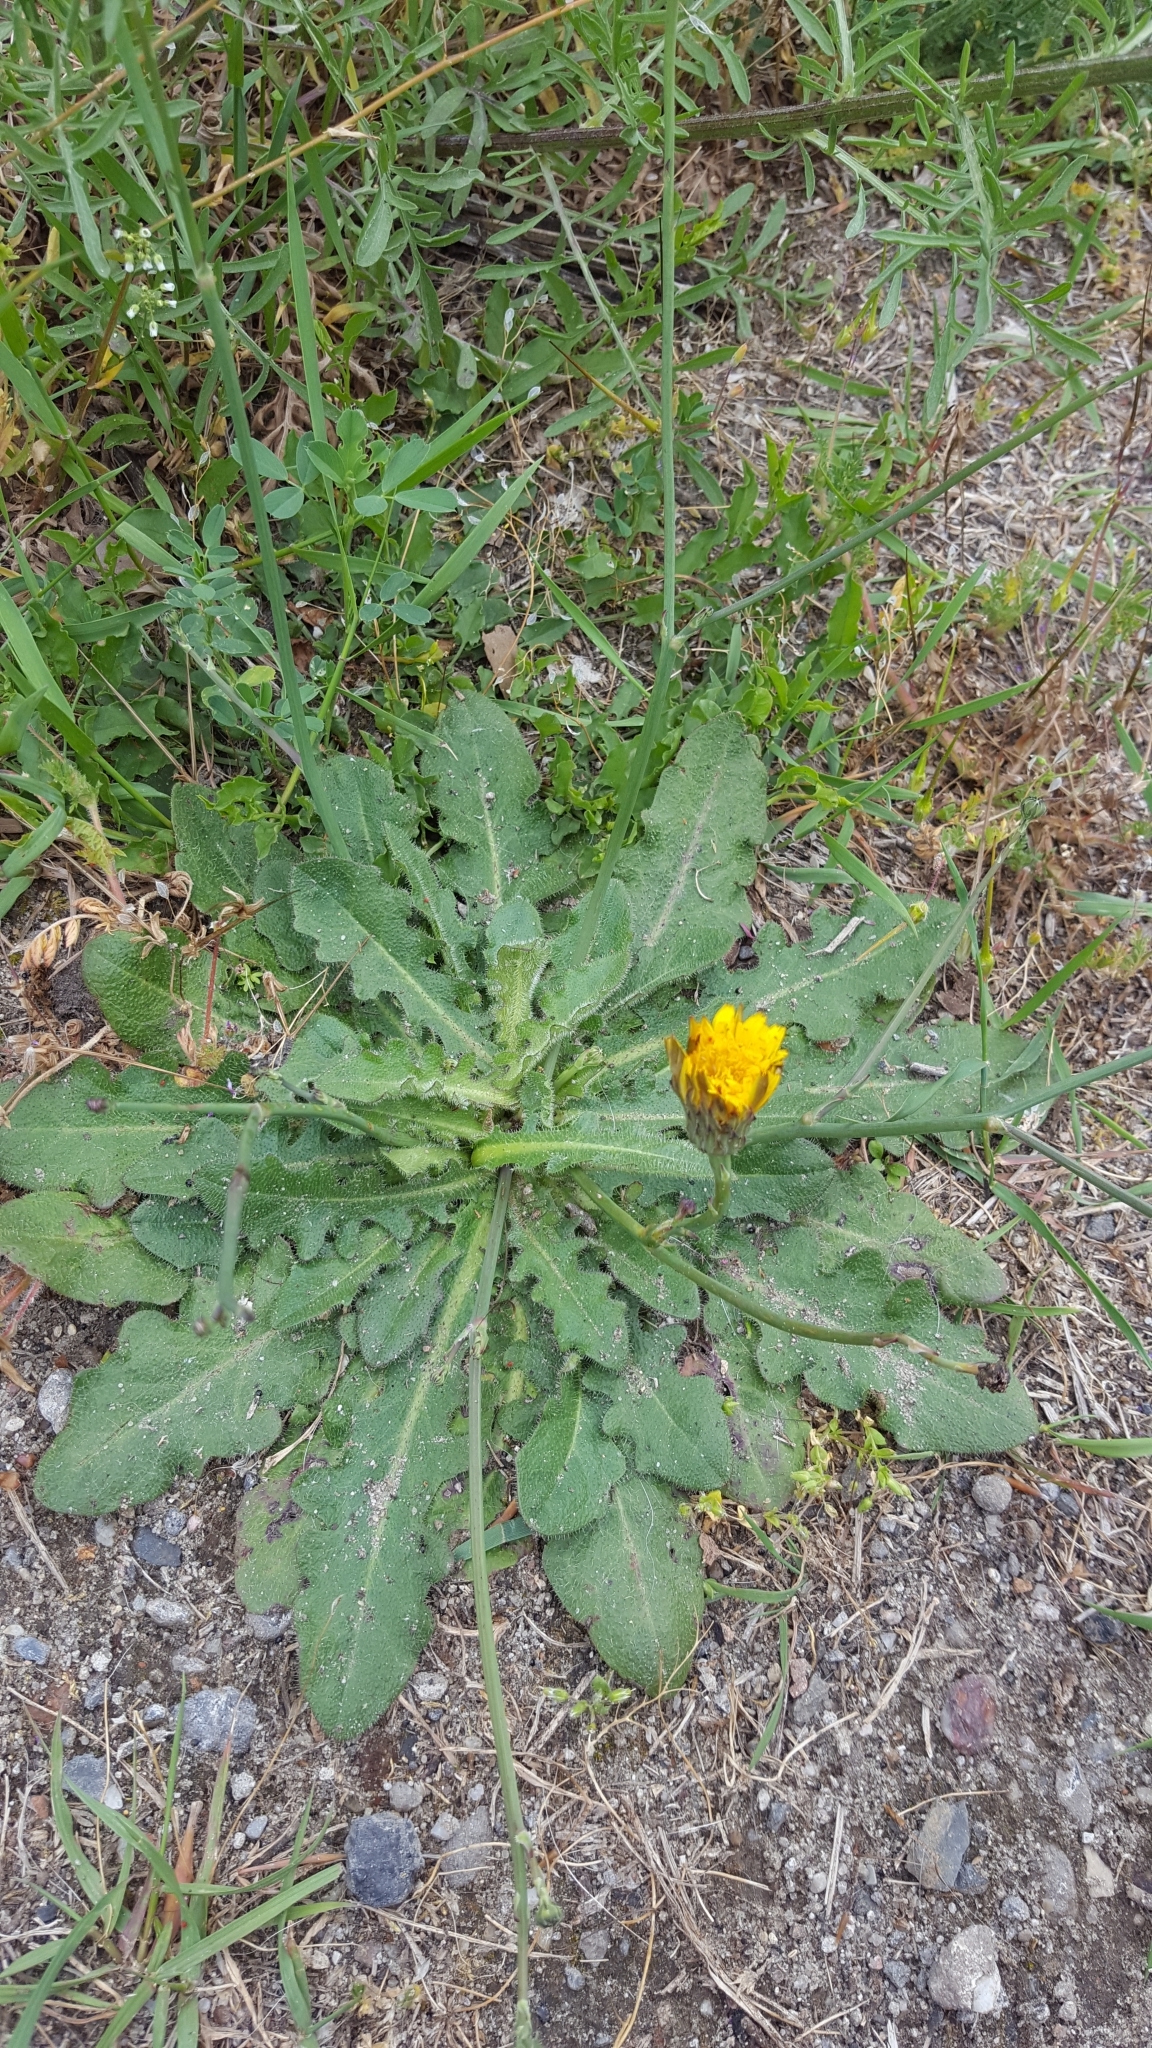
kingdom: Plantae
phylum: Tracheophyta
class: Magnoliopsida
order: Asterales
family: Asteraceae
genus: Hypochaeris
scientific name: Hypochaeris radicata
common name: Flatweed
